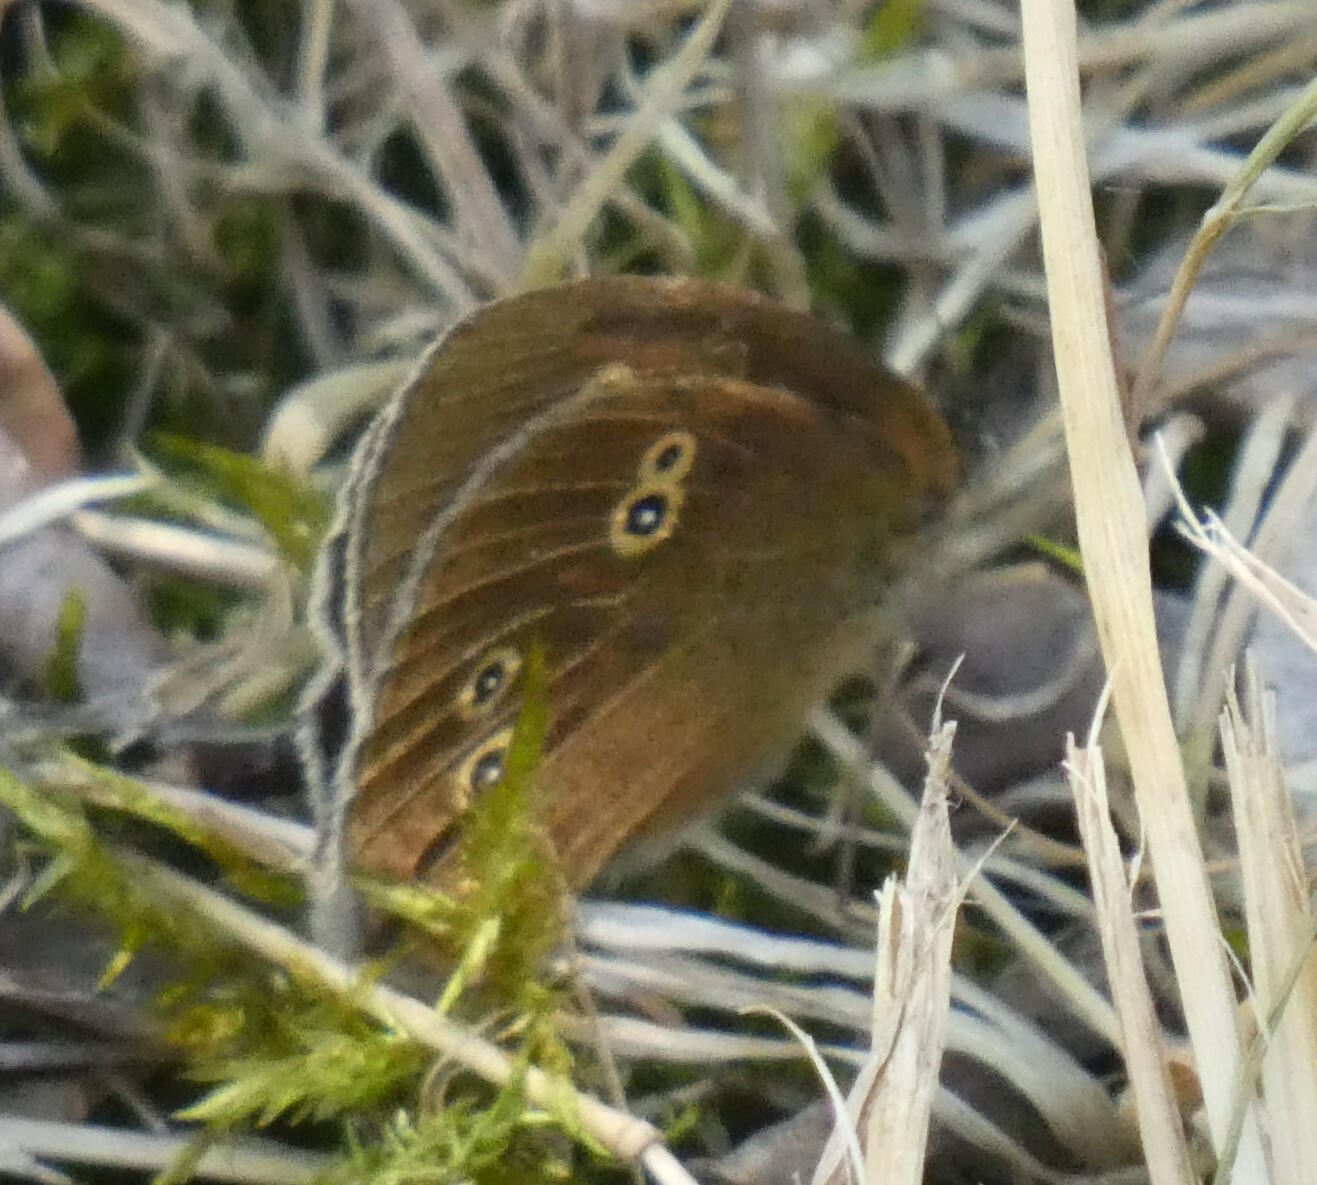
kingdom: Animalia
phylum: Arthropoda
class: Insecta
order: Lepidoptera
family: Nymphalidae
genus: Aphantopus
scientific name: Aphantopus hyperantus
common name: Ringlet
